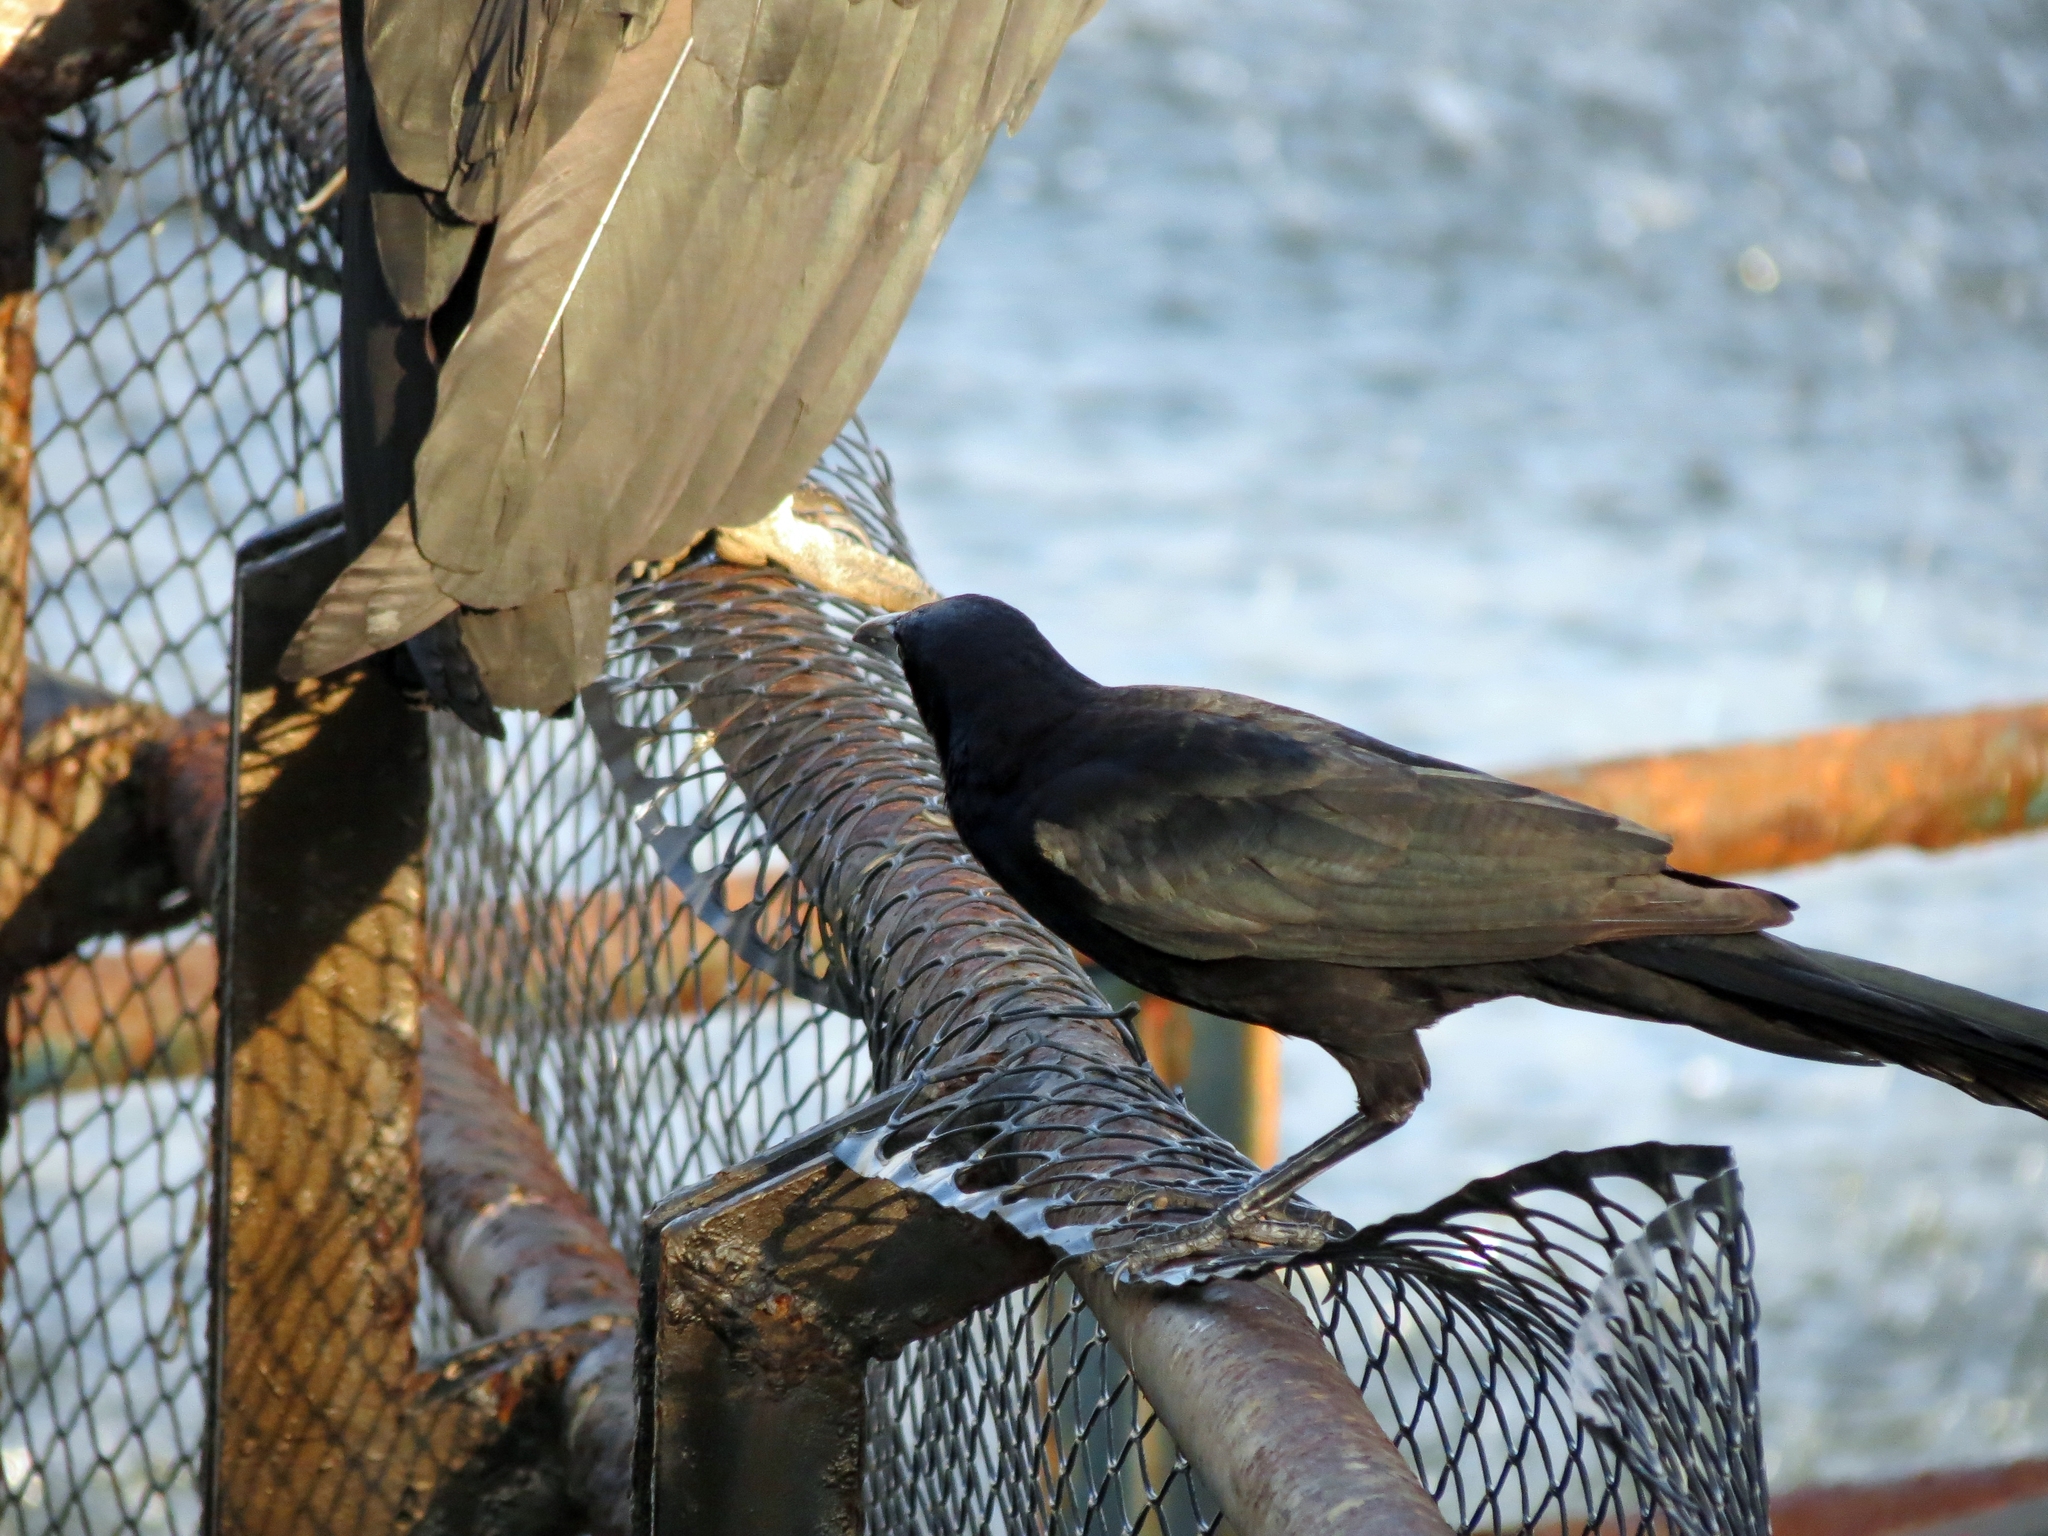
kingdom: Animalia
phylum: Chordata
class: Aves
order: Passeriformes
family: Icteridae
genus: Quiscalus
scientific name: Quiscalus mexicanus
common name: Great-tailed grackle
